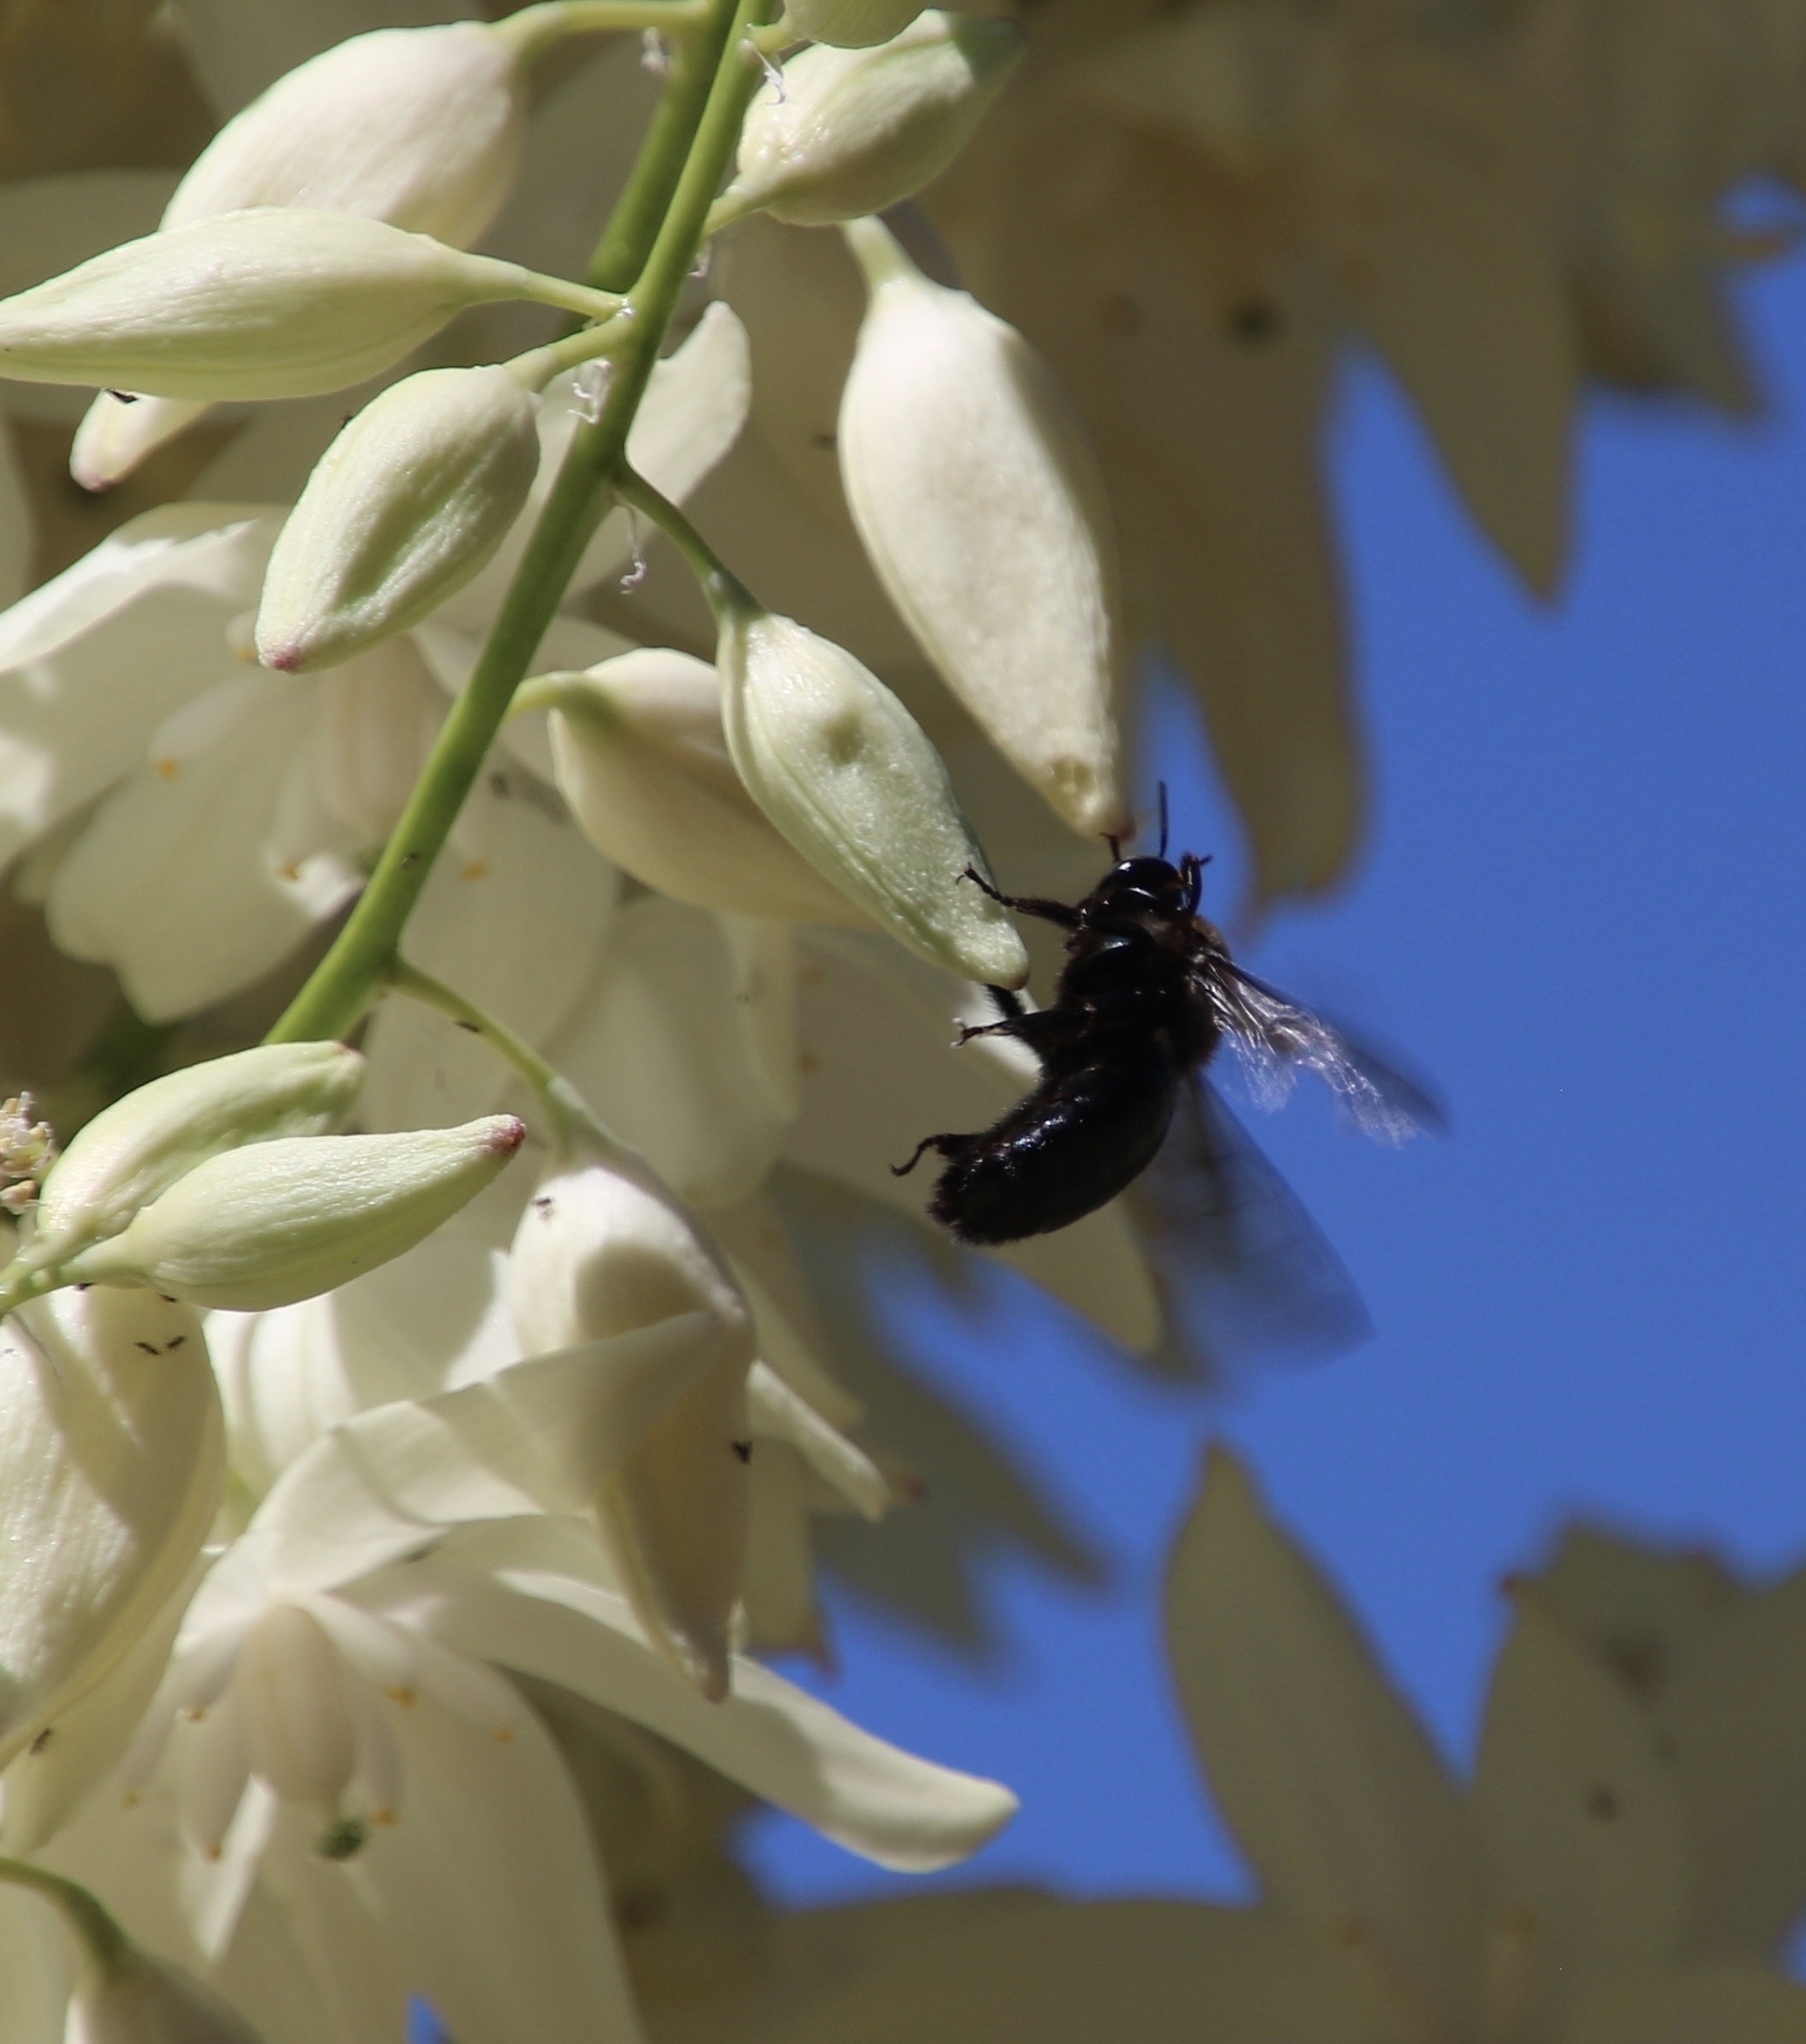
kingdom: Animalia
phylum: Arthropoda
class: Insecta
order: Hymenoptera
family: Apidae
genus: Xylocopa
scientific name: Xylocopa californica
